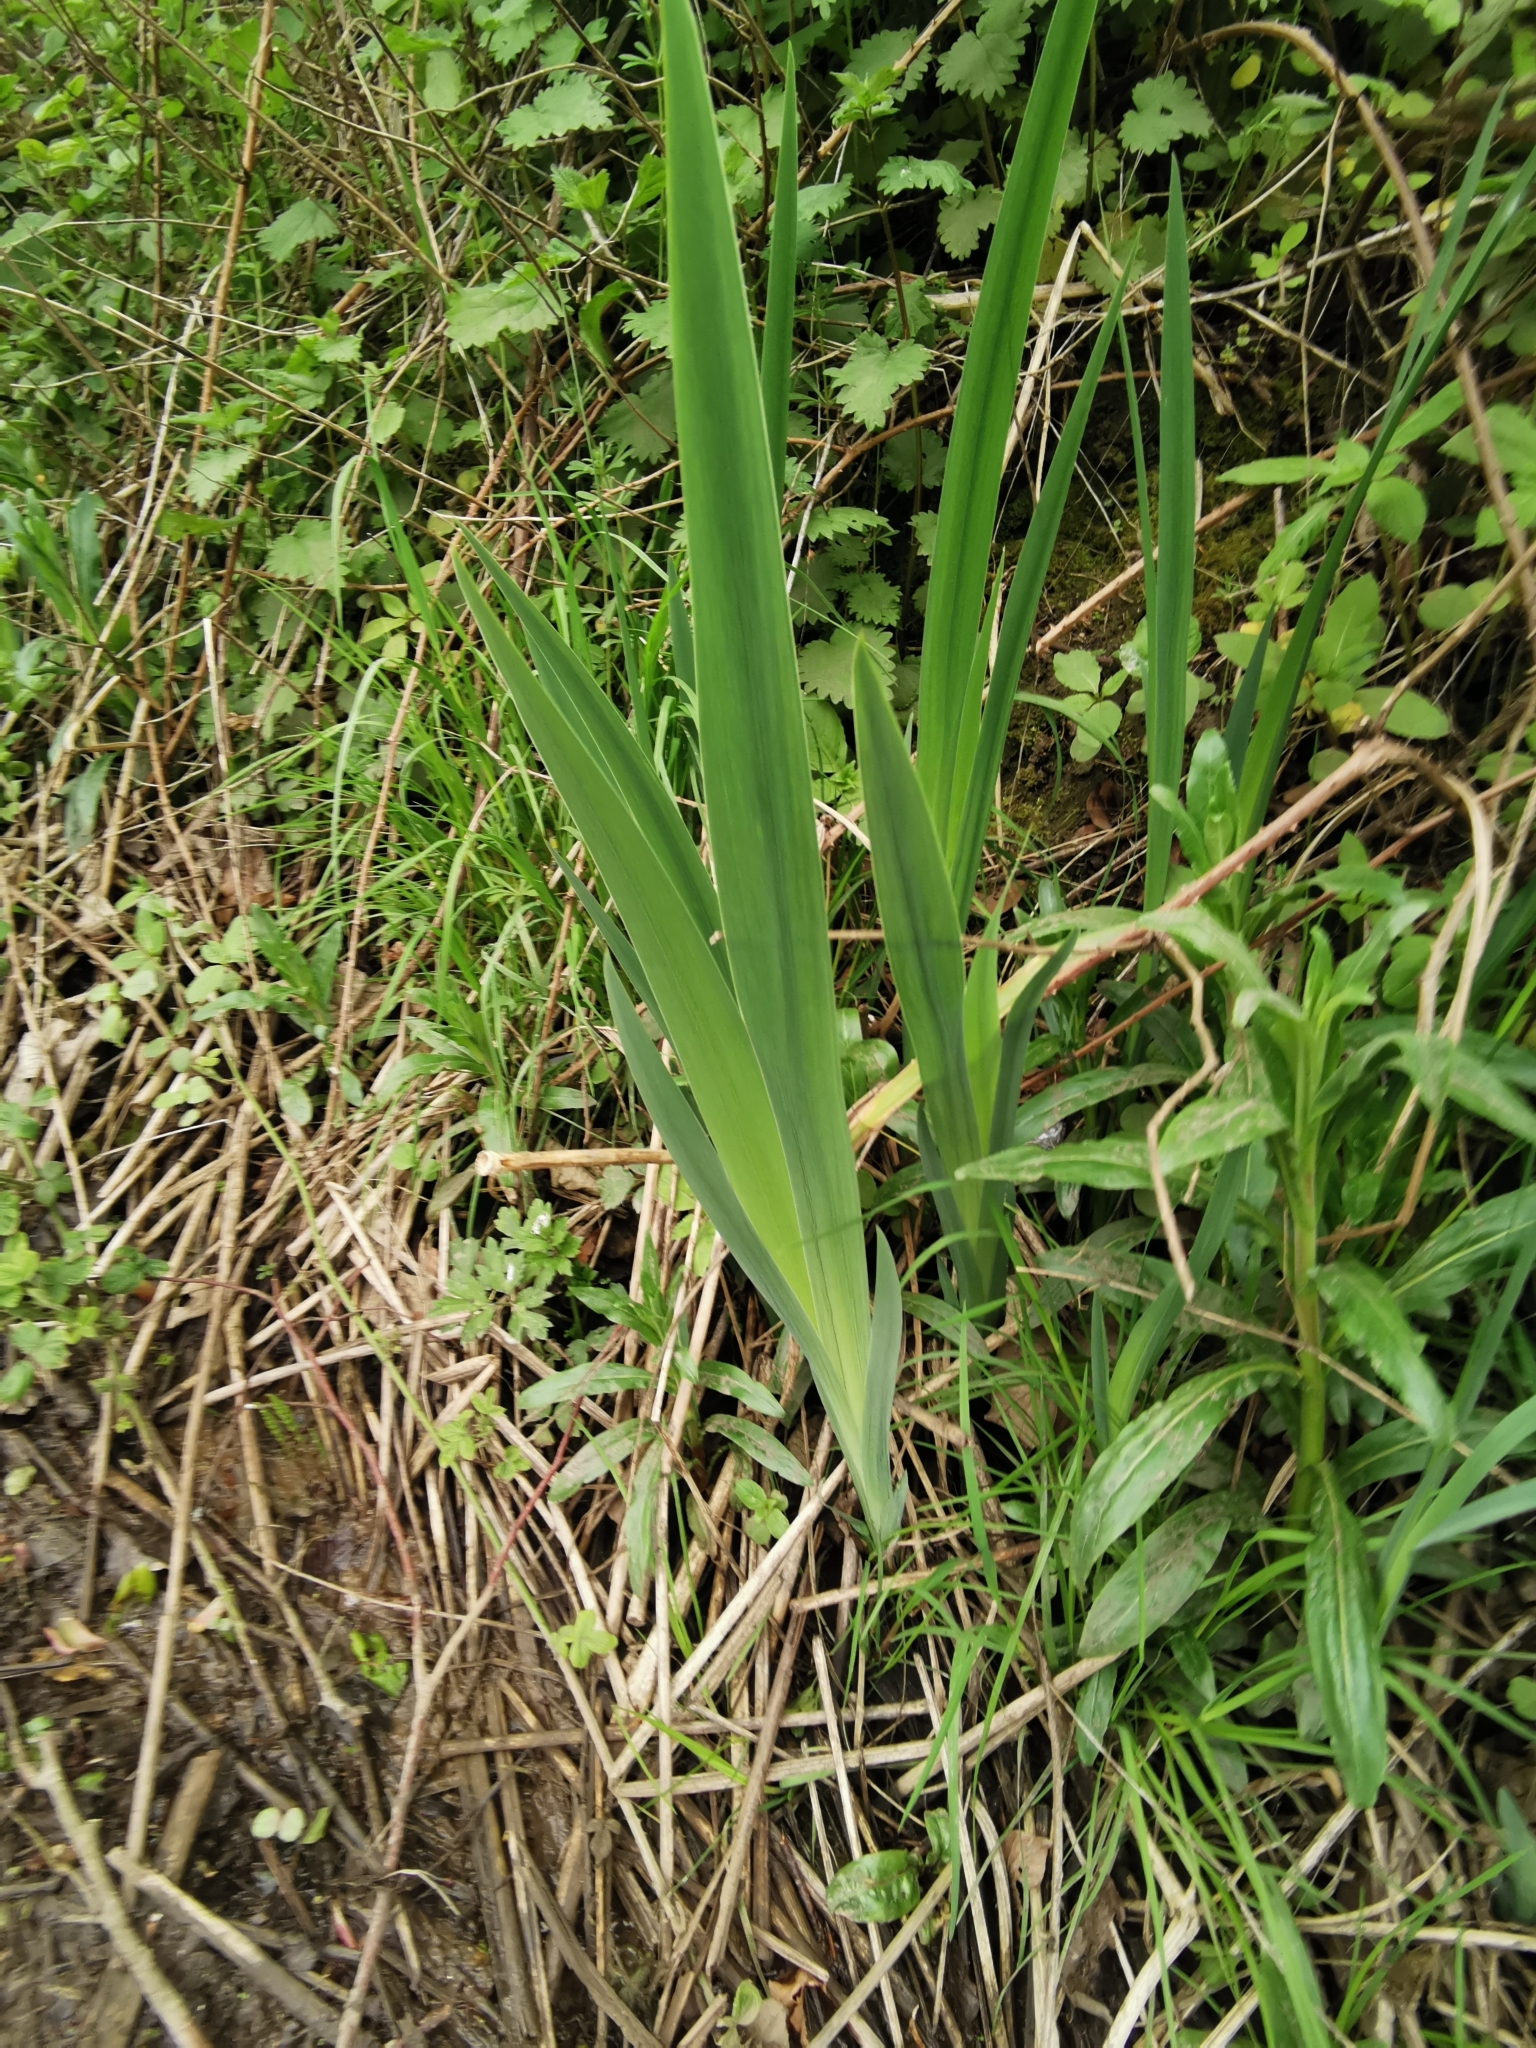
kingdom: Plantae
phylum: Tracheophyta
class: Liliopsida
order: Asparagales
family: Iridaceae
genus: Iris
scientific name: Iris pseudacorus
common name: Yellow flag
